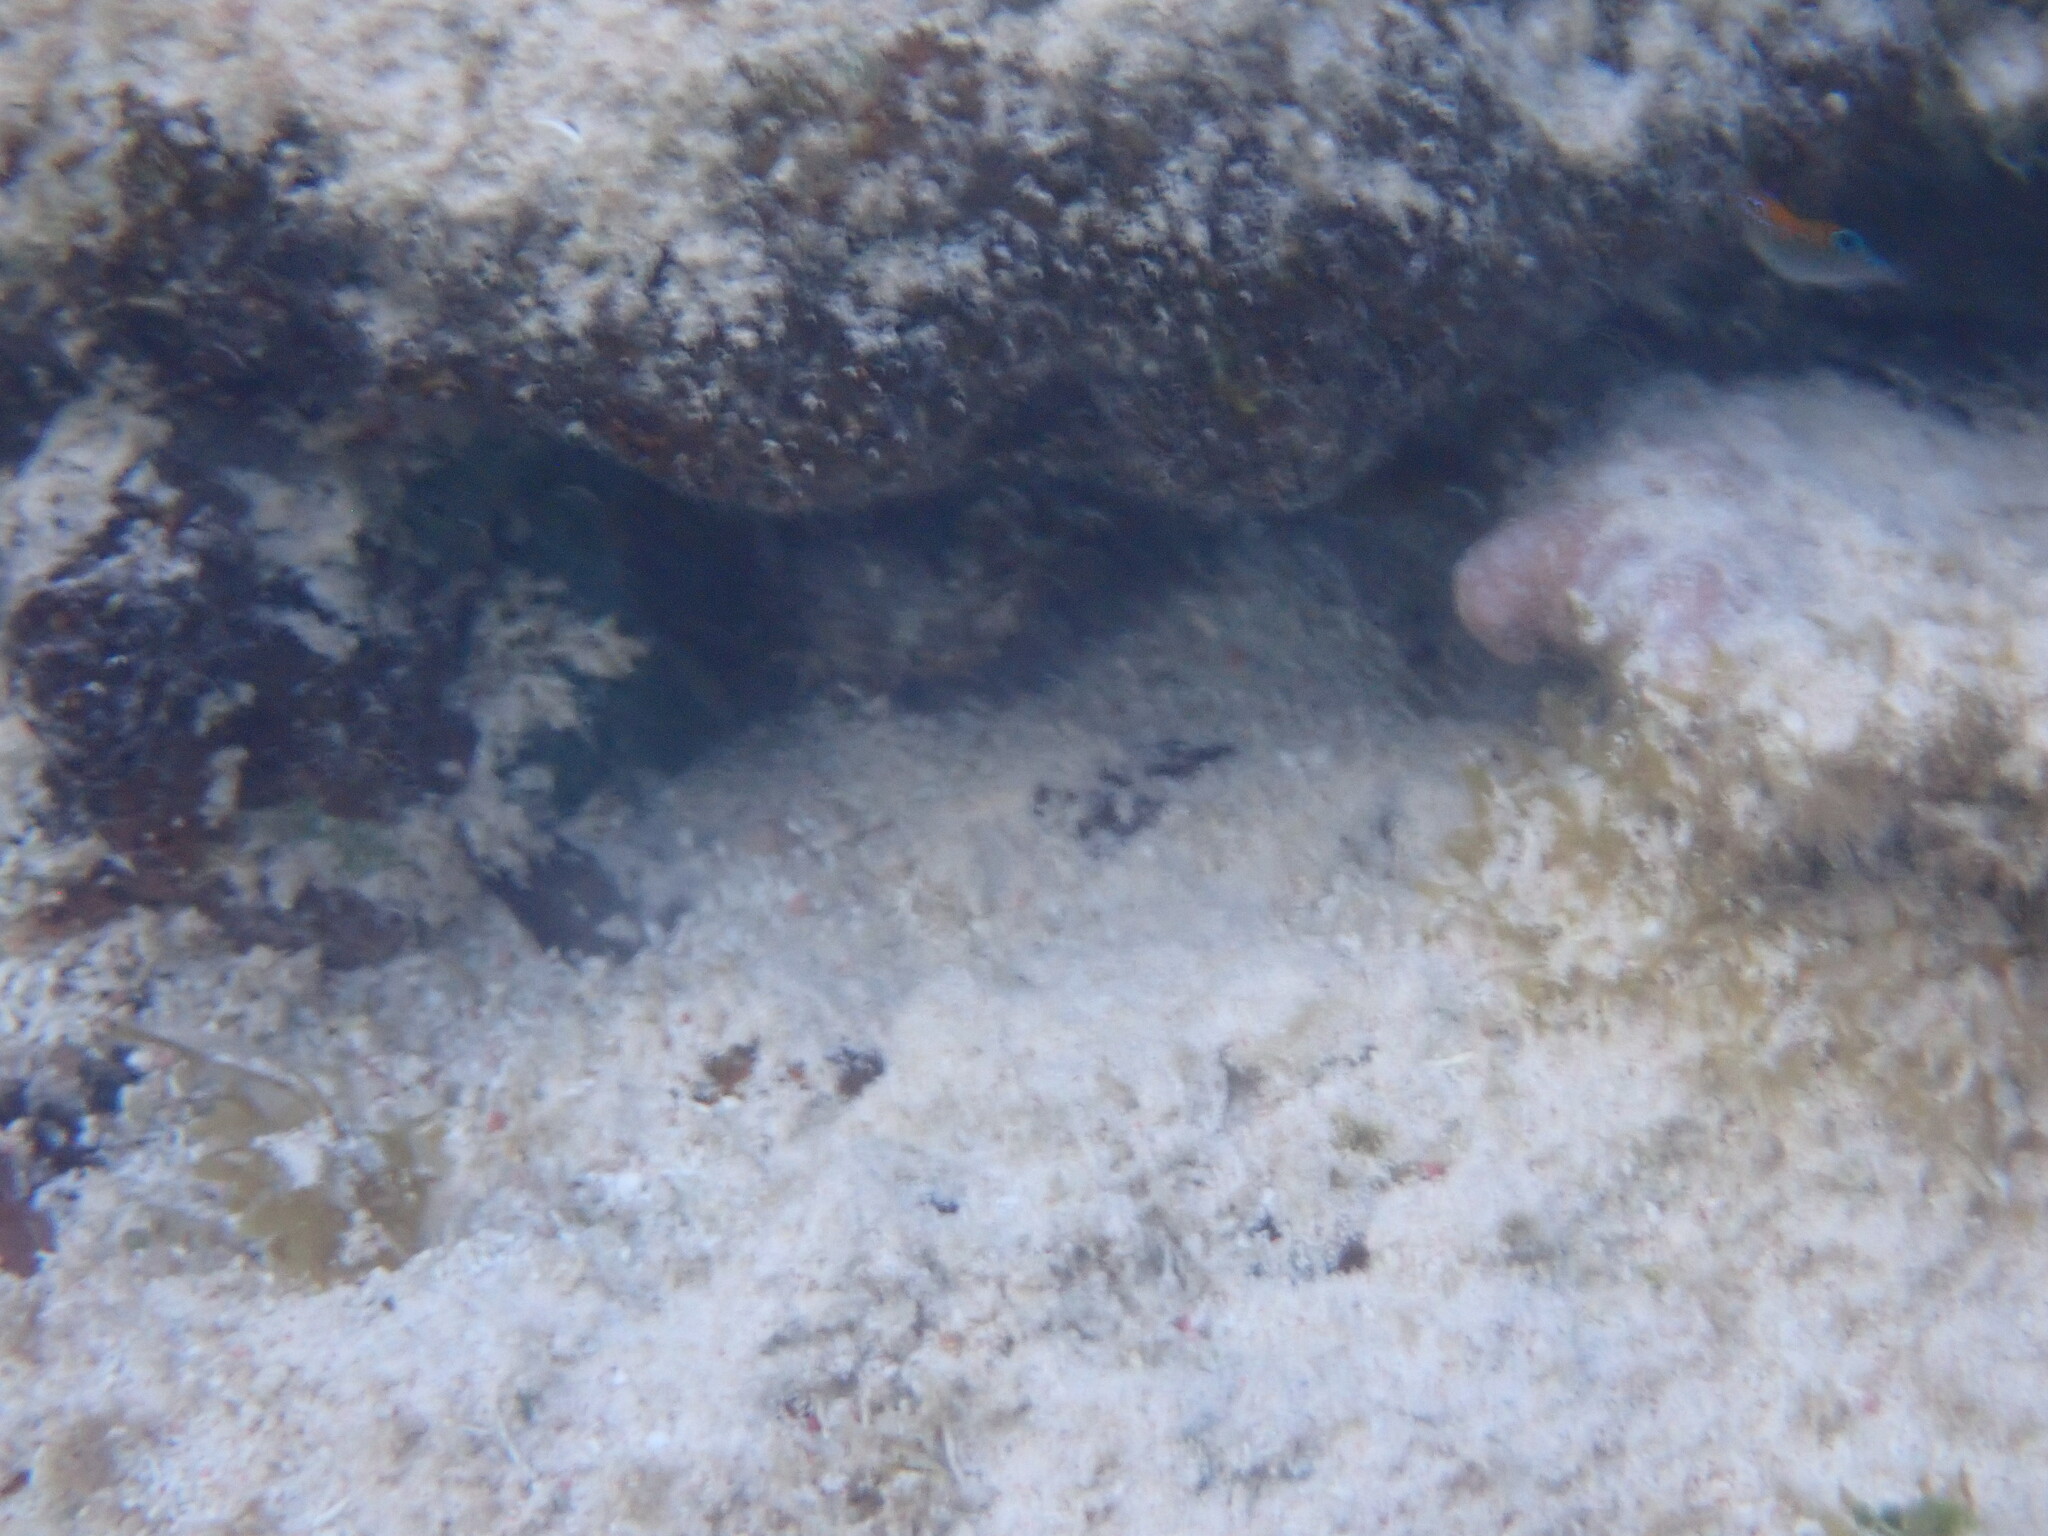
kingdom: Animalia
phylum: Chordata
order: Perciformes
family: Pomacentridae
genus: Stegastes
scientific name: Stegastes adustus
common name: Dusky damselfish
